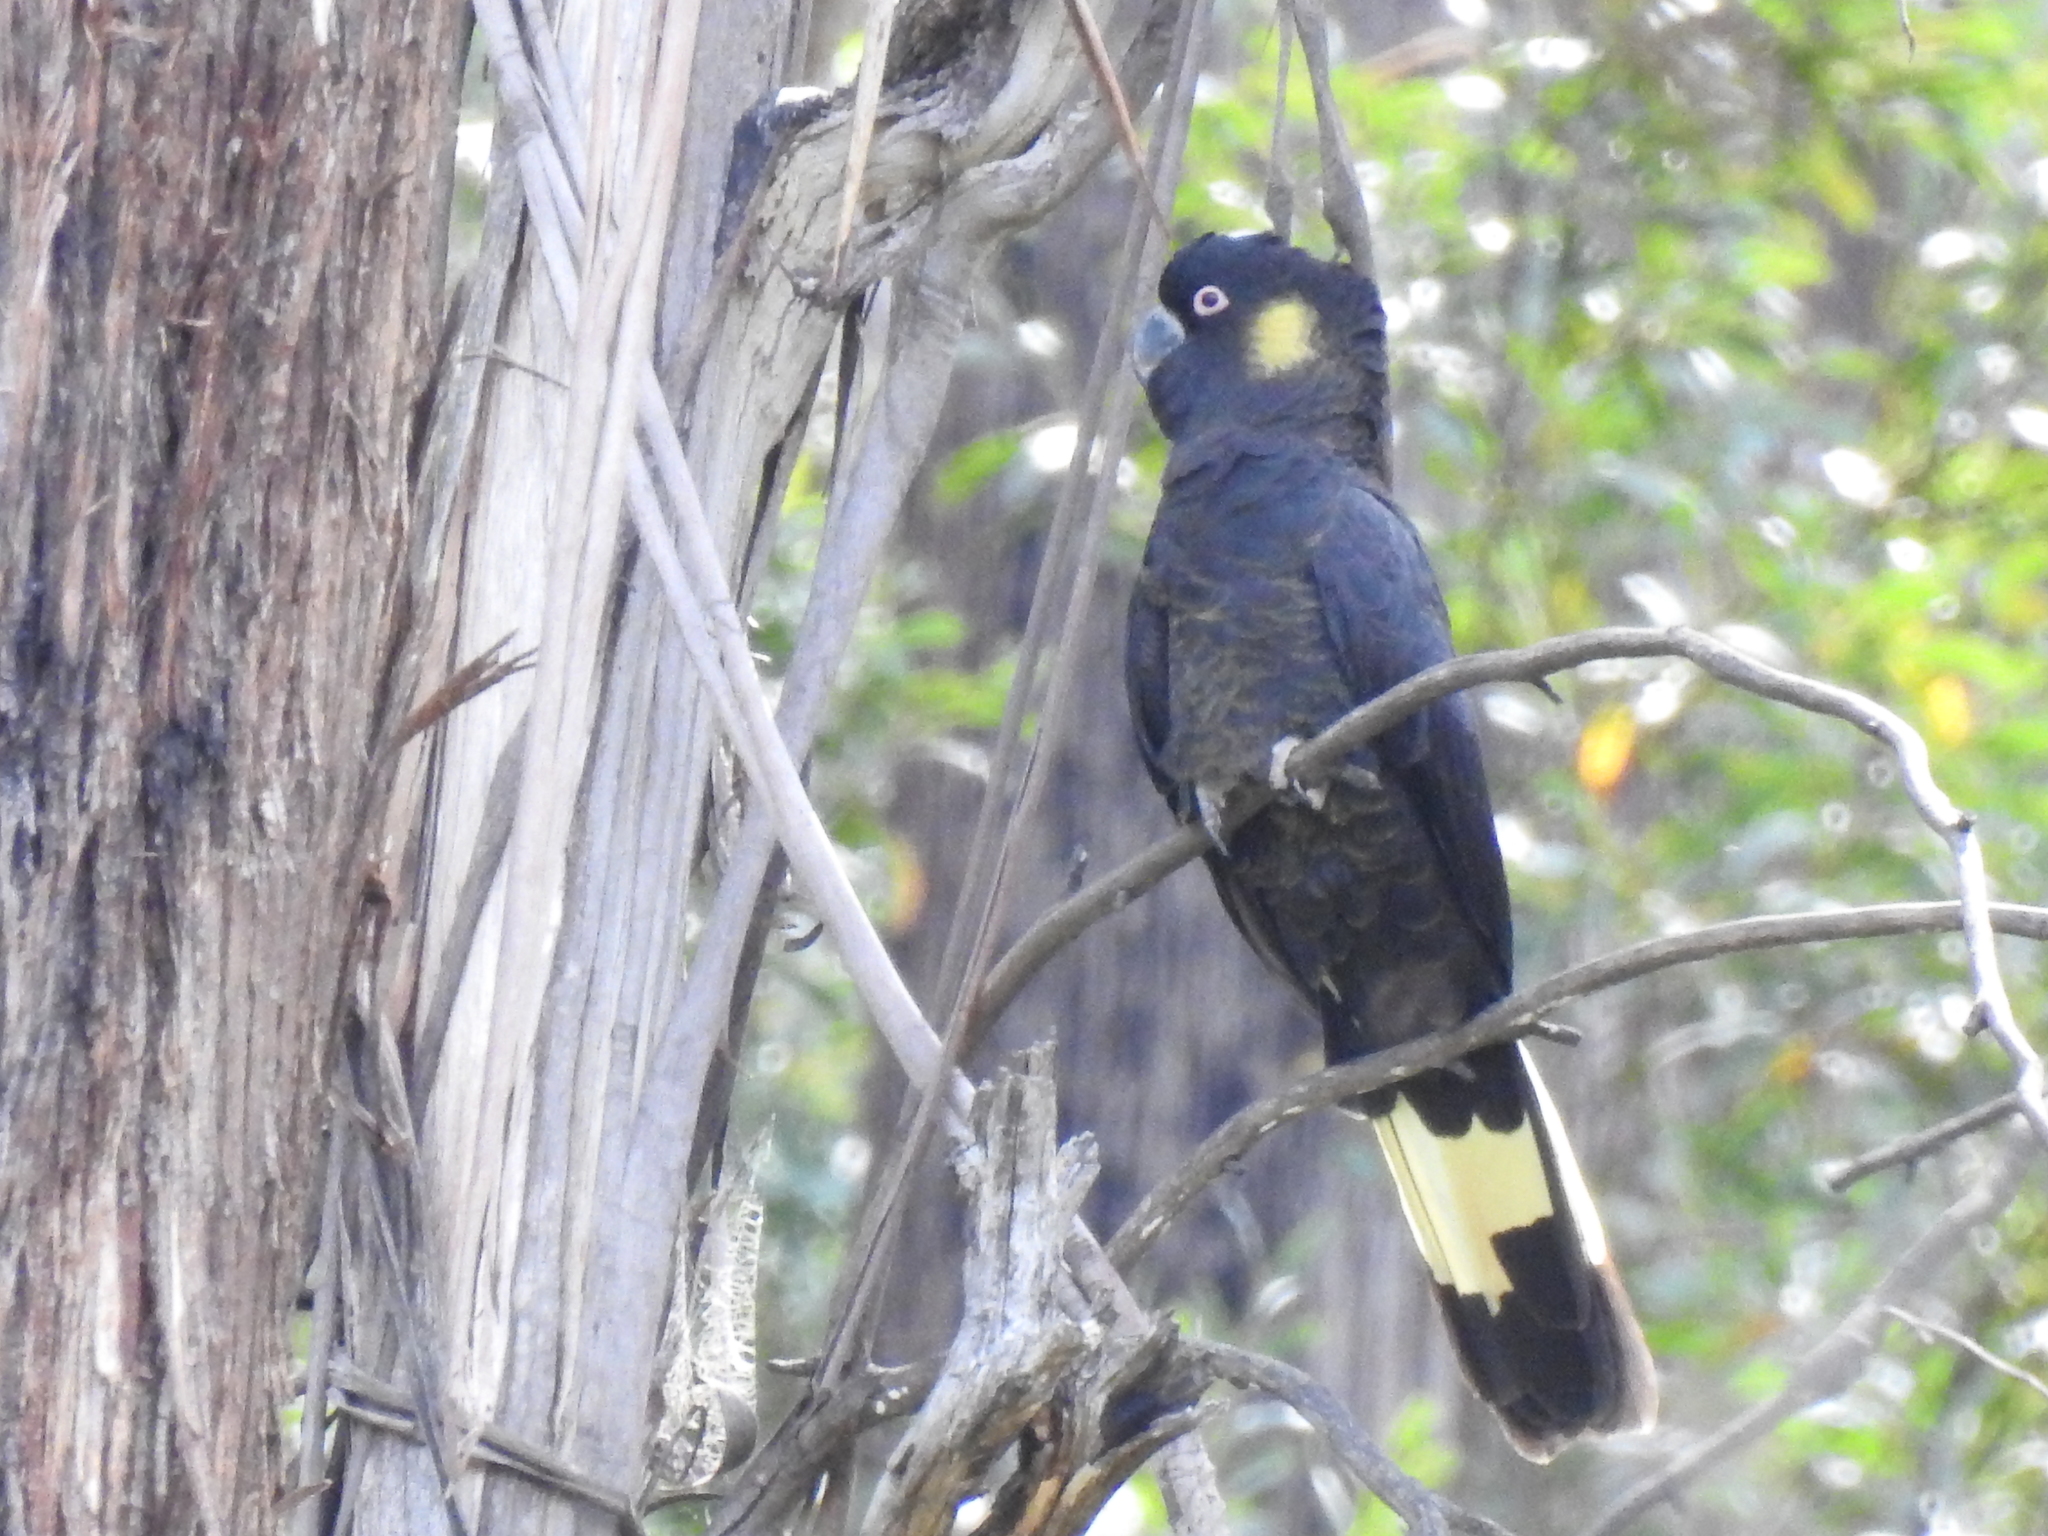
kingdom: Animalia
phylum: Chordata
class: Aves
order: Psittaciformes
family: Cacatuidae
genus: Zanda
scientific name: Zanda funerea
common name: Yellow-tailed black-cockatoo
